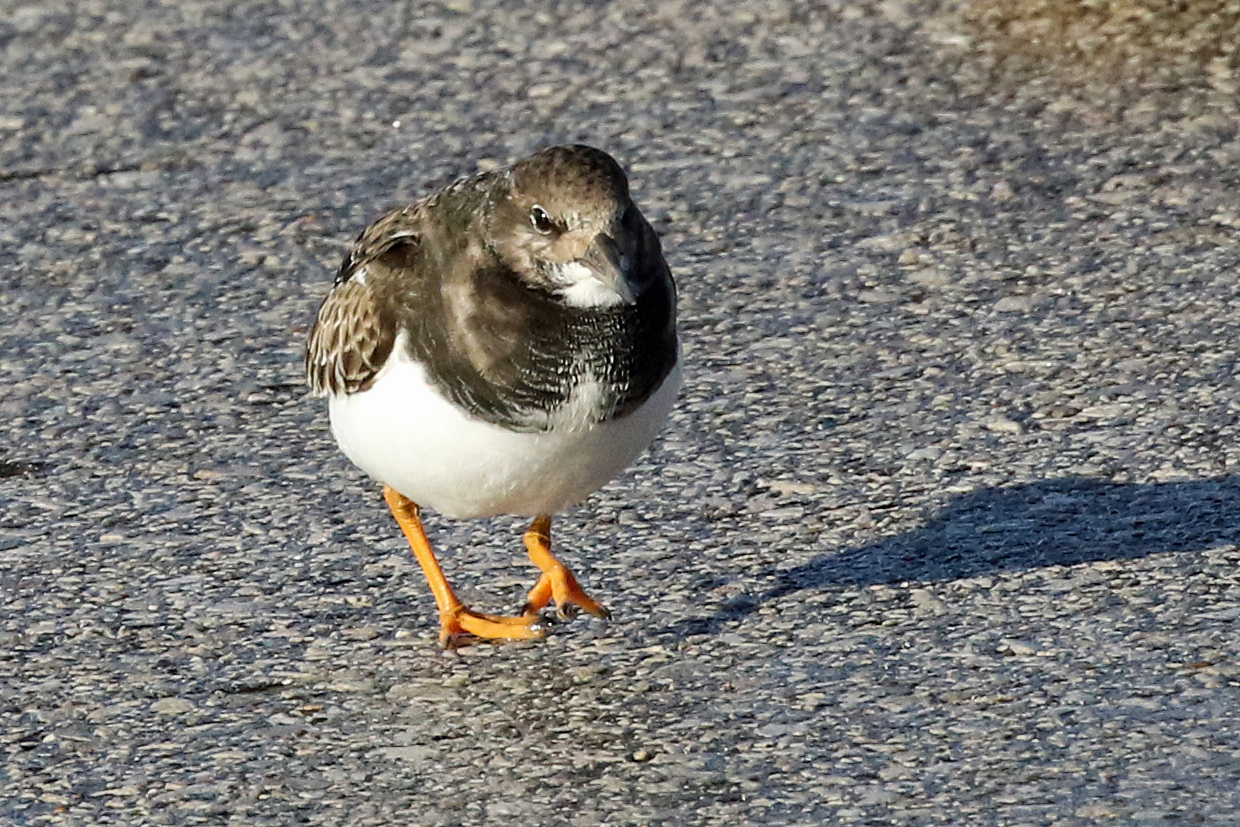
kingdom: Animalia
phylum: Chordata
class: Aves
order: Charadriiformes
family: Scolopacidae
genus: Arenaria
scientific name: Arenaria interpres
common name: Ruddy turnstone
